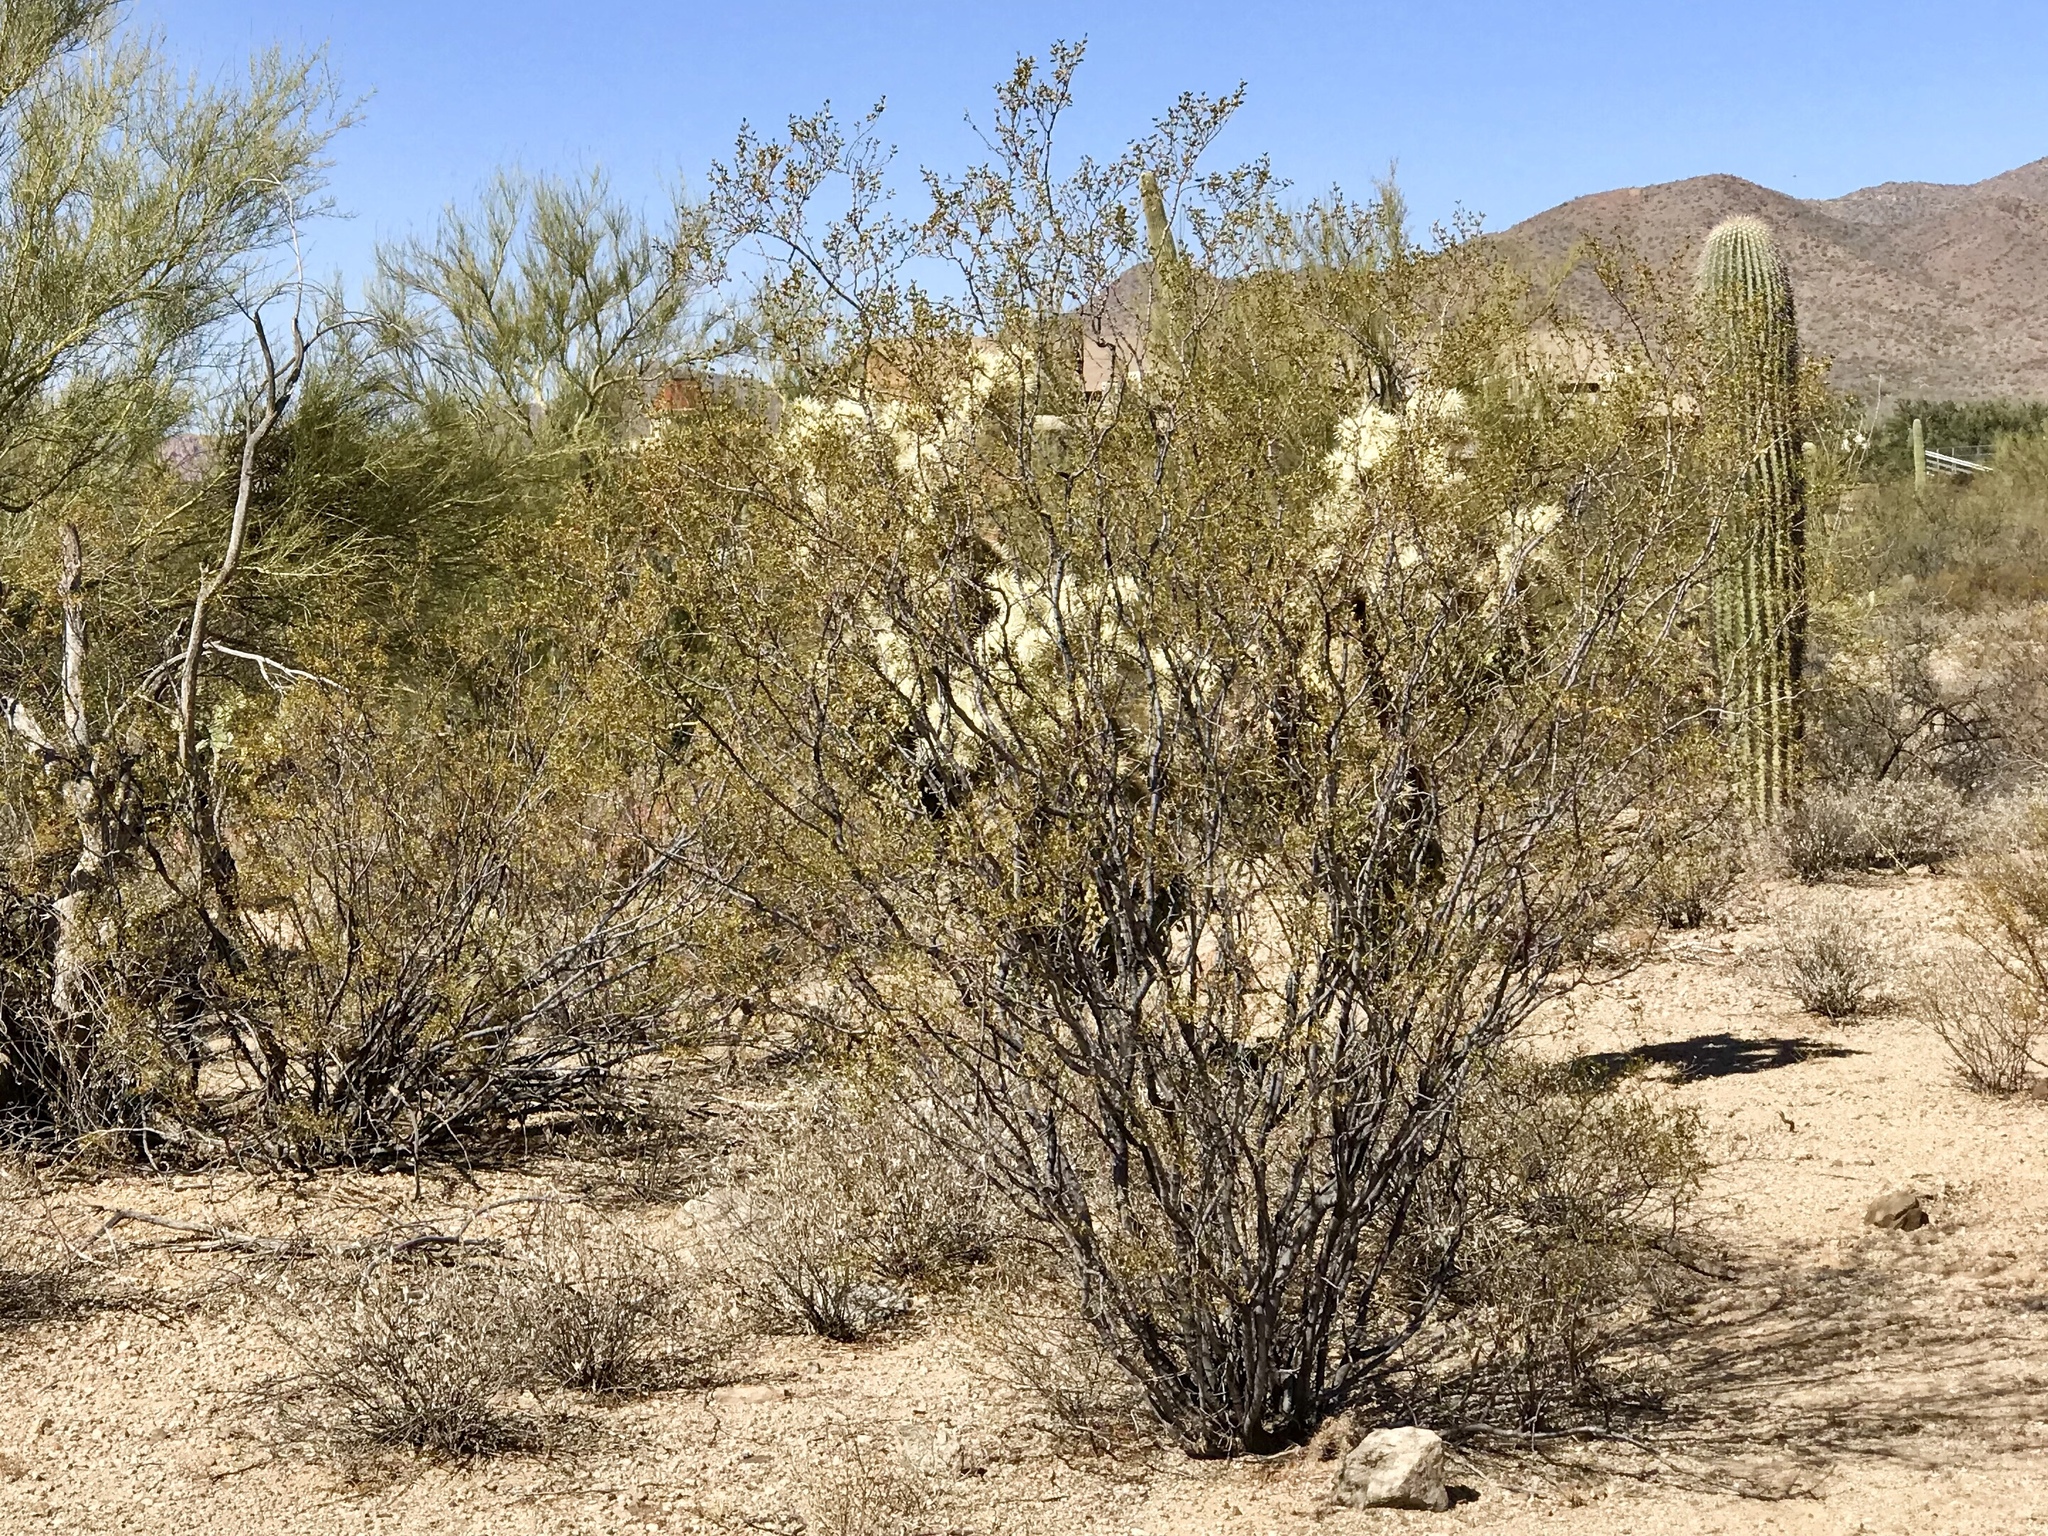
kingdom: Plantae
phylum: Tracheophyta
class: Magnoliopsida
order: Zygophyllales
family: Zygophyllaceae
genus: Larrea
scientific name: Larrea tridentata
